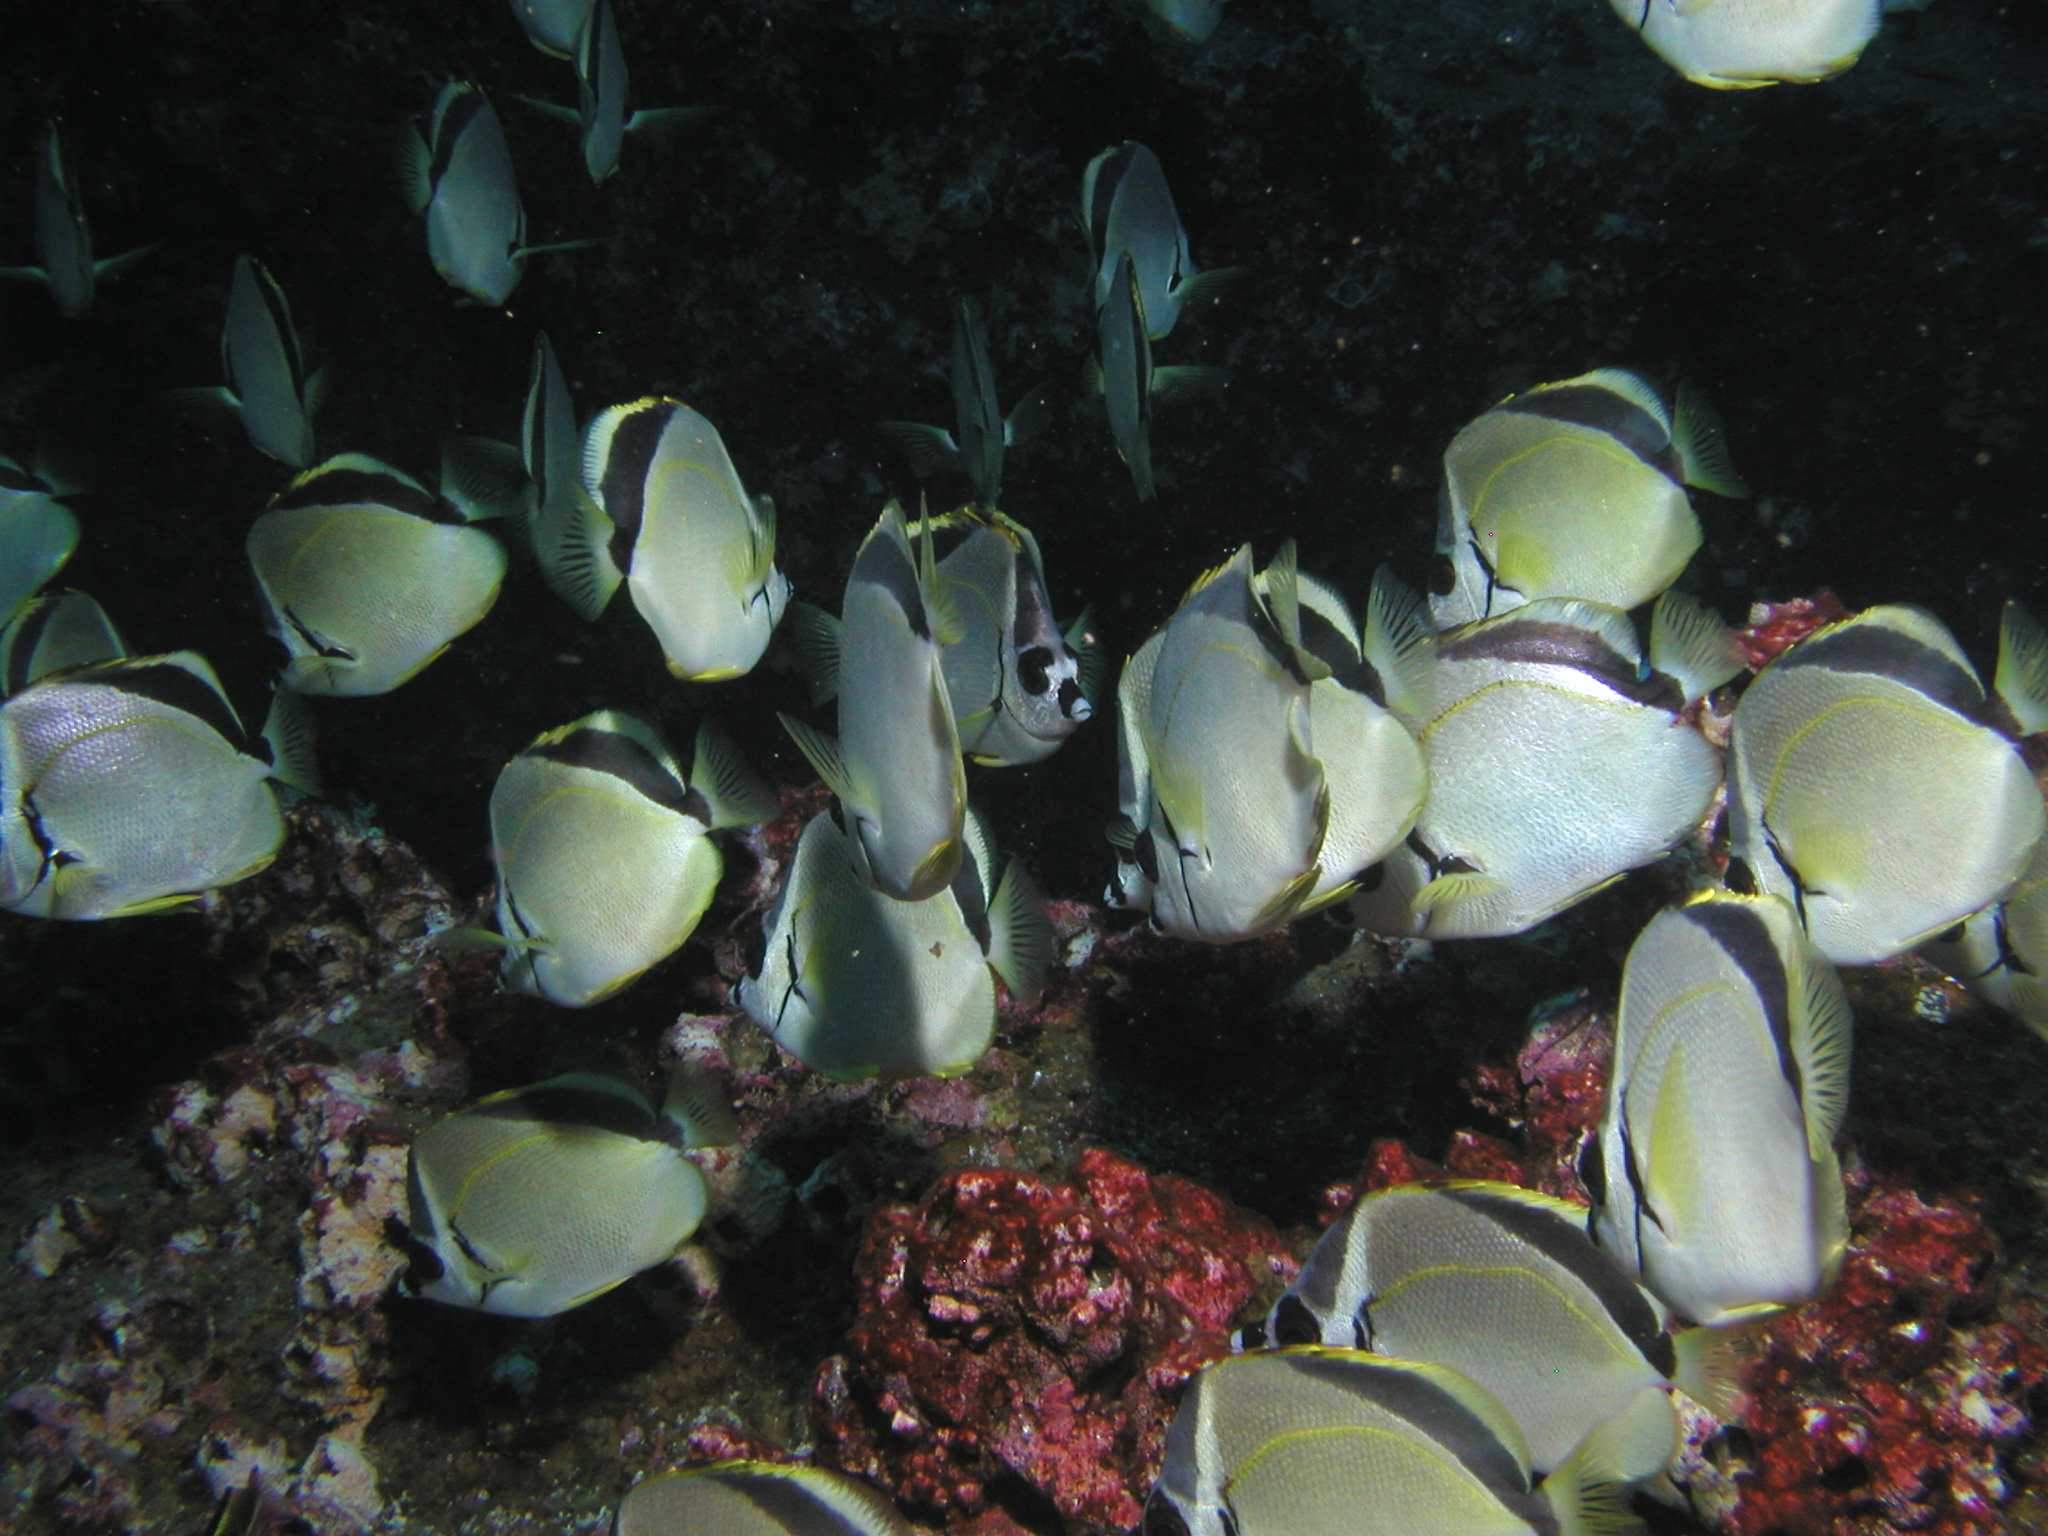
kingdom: Animalia
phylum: Chordata
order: Perciformes
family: Chaetodontidae
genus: Johnrandallia
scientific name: Johnrandallia nigrirostris
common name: Barberfish
